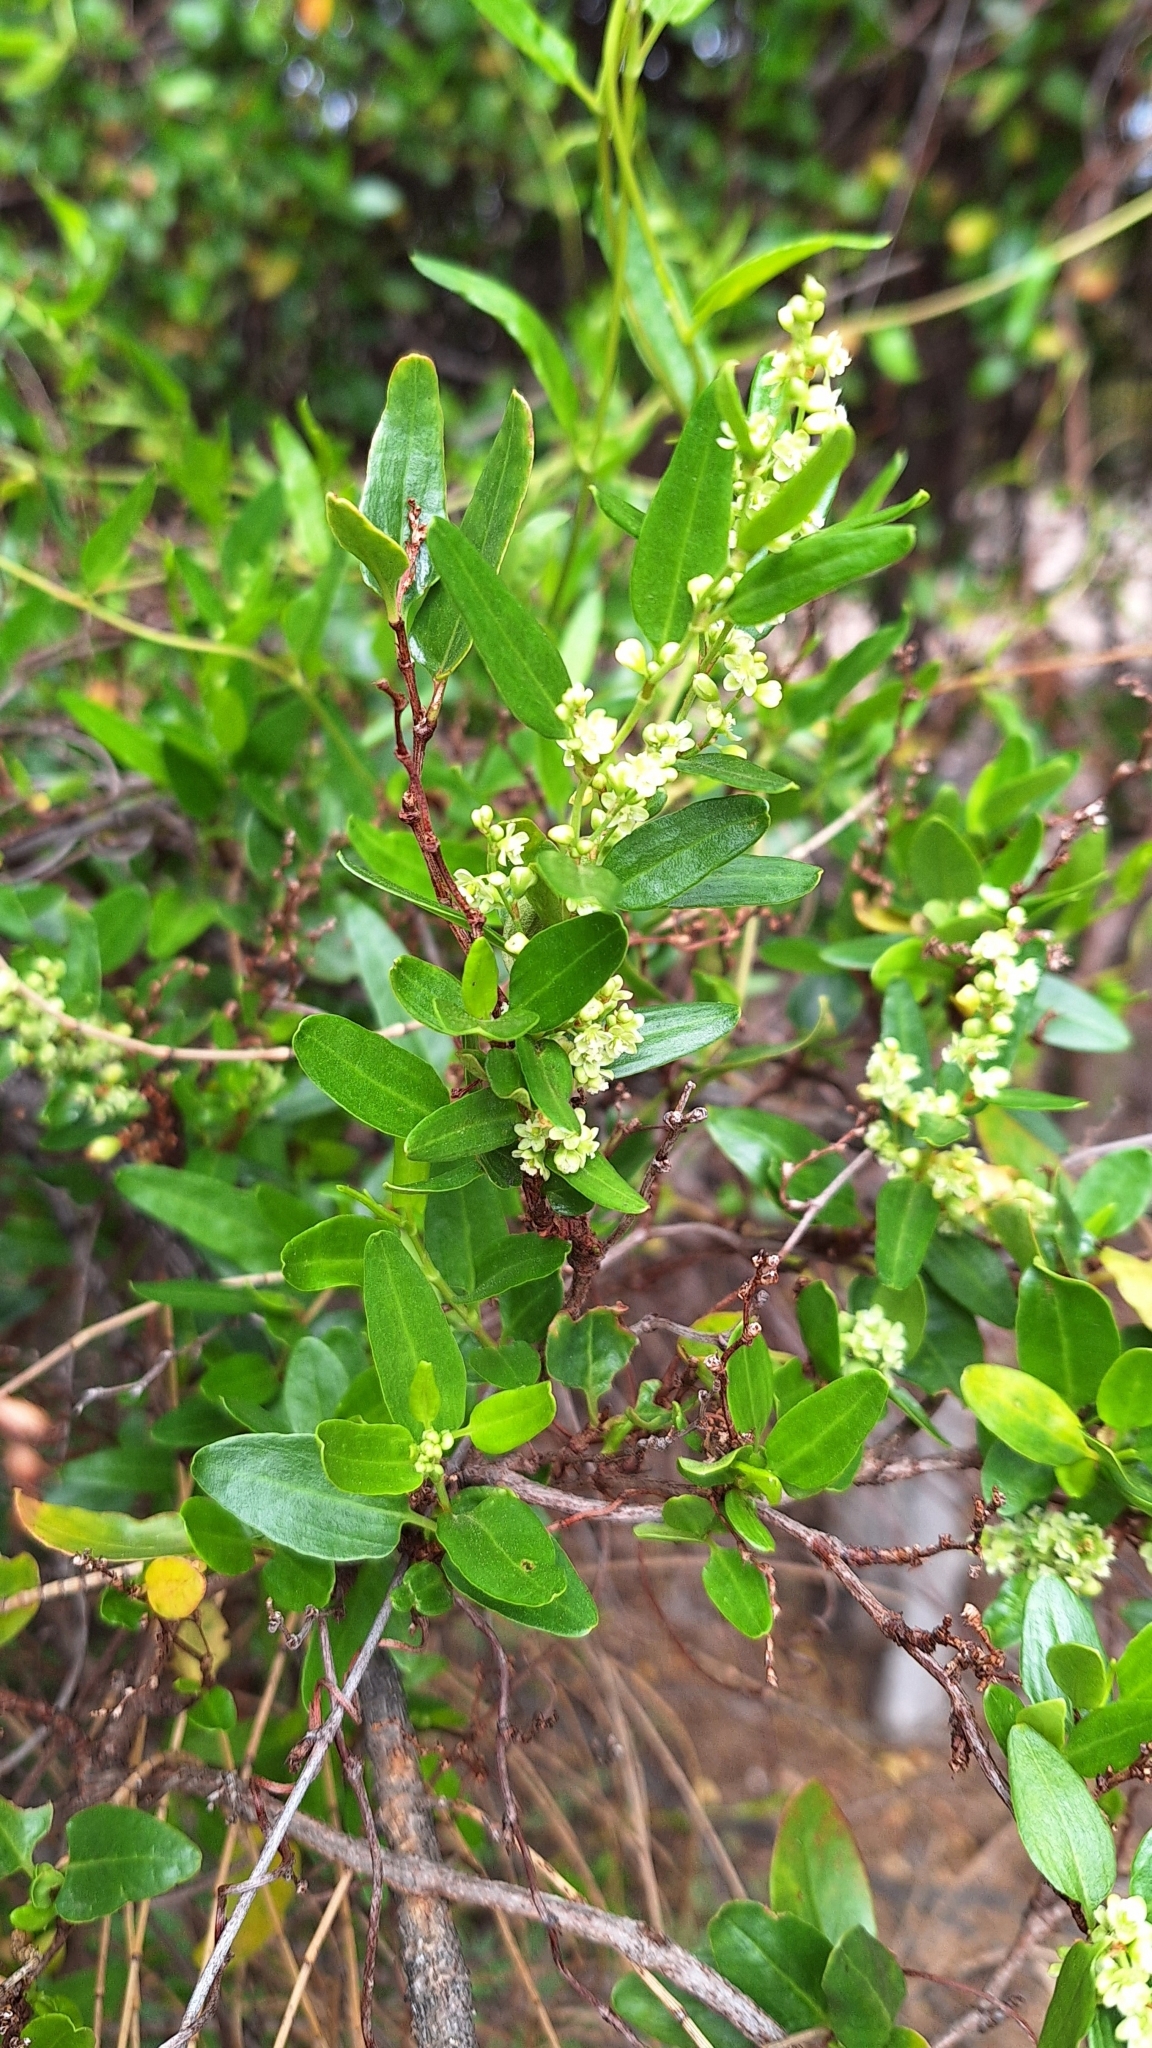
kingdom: Plantae
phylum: Tracheophyta
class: Magnoliopsida
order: Caryophyllales
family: Polygonaceae
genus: Muehlenbeckia
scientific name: Muehlenbeckia gunnii
